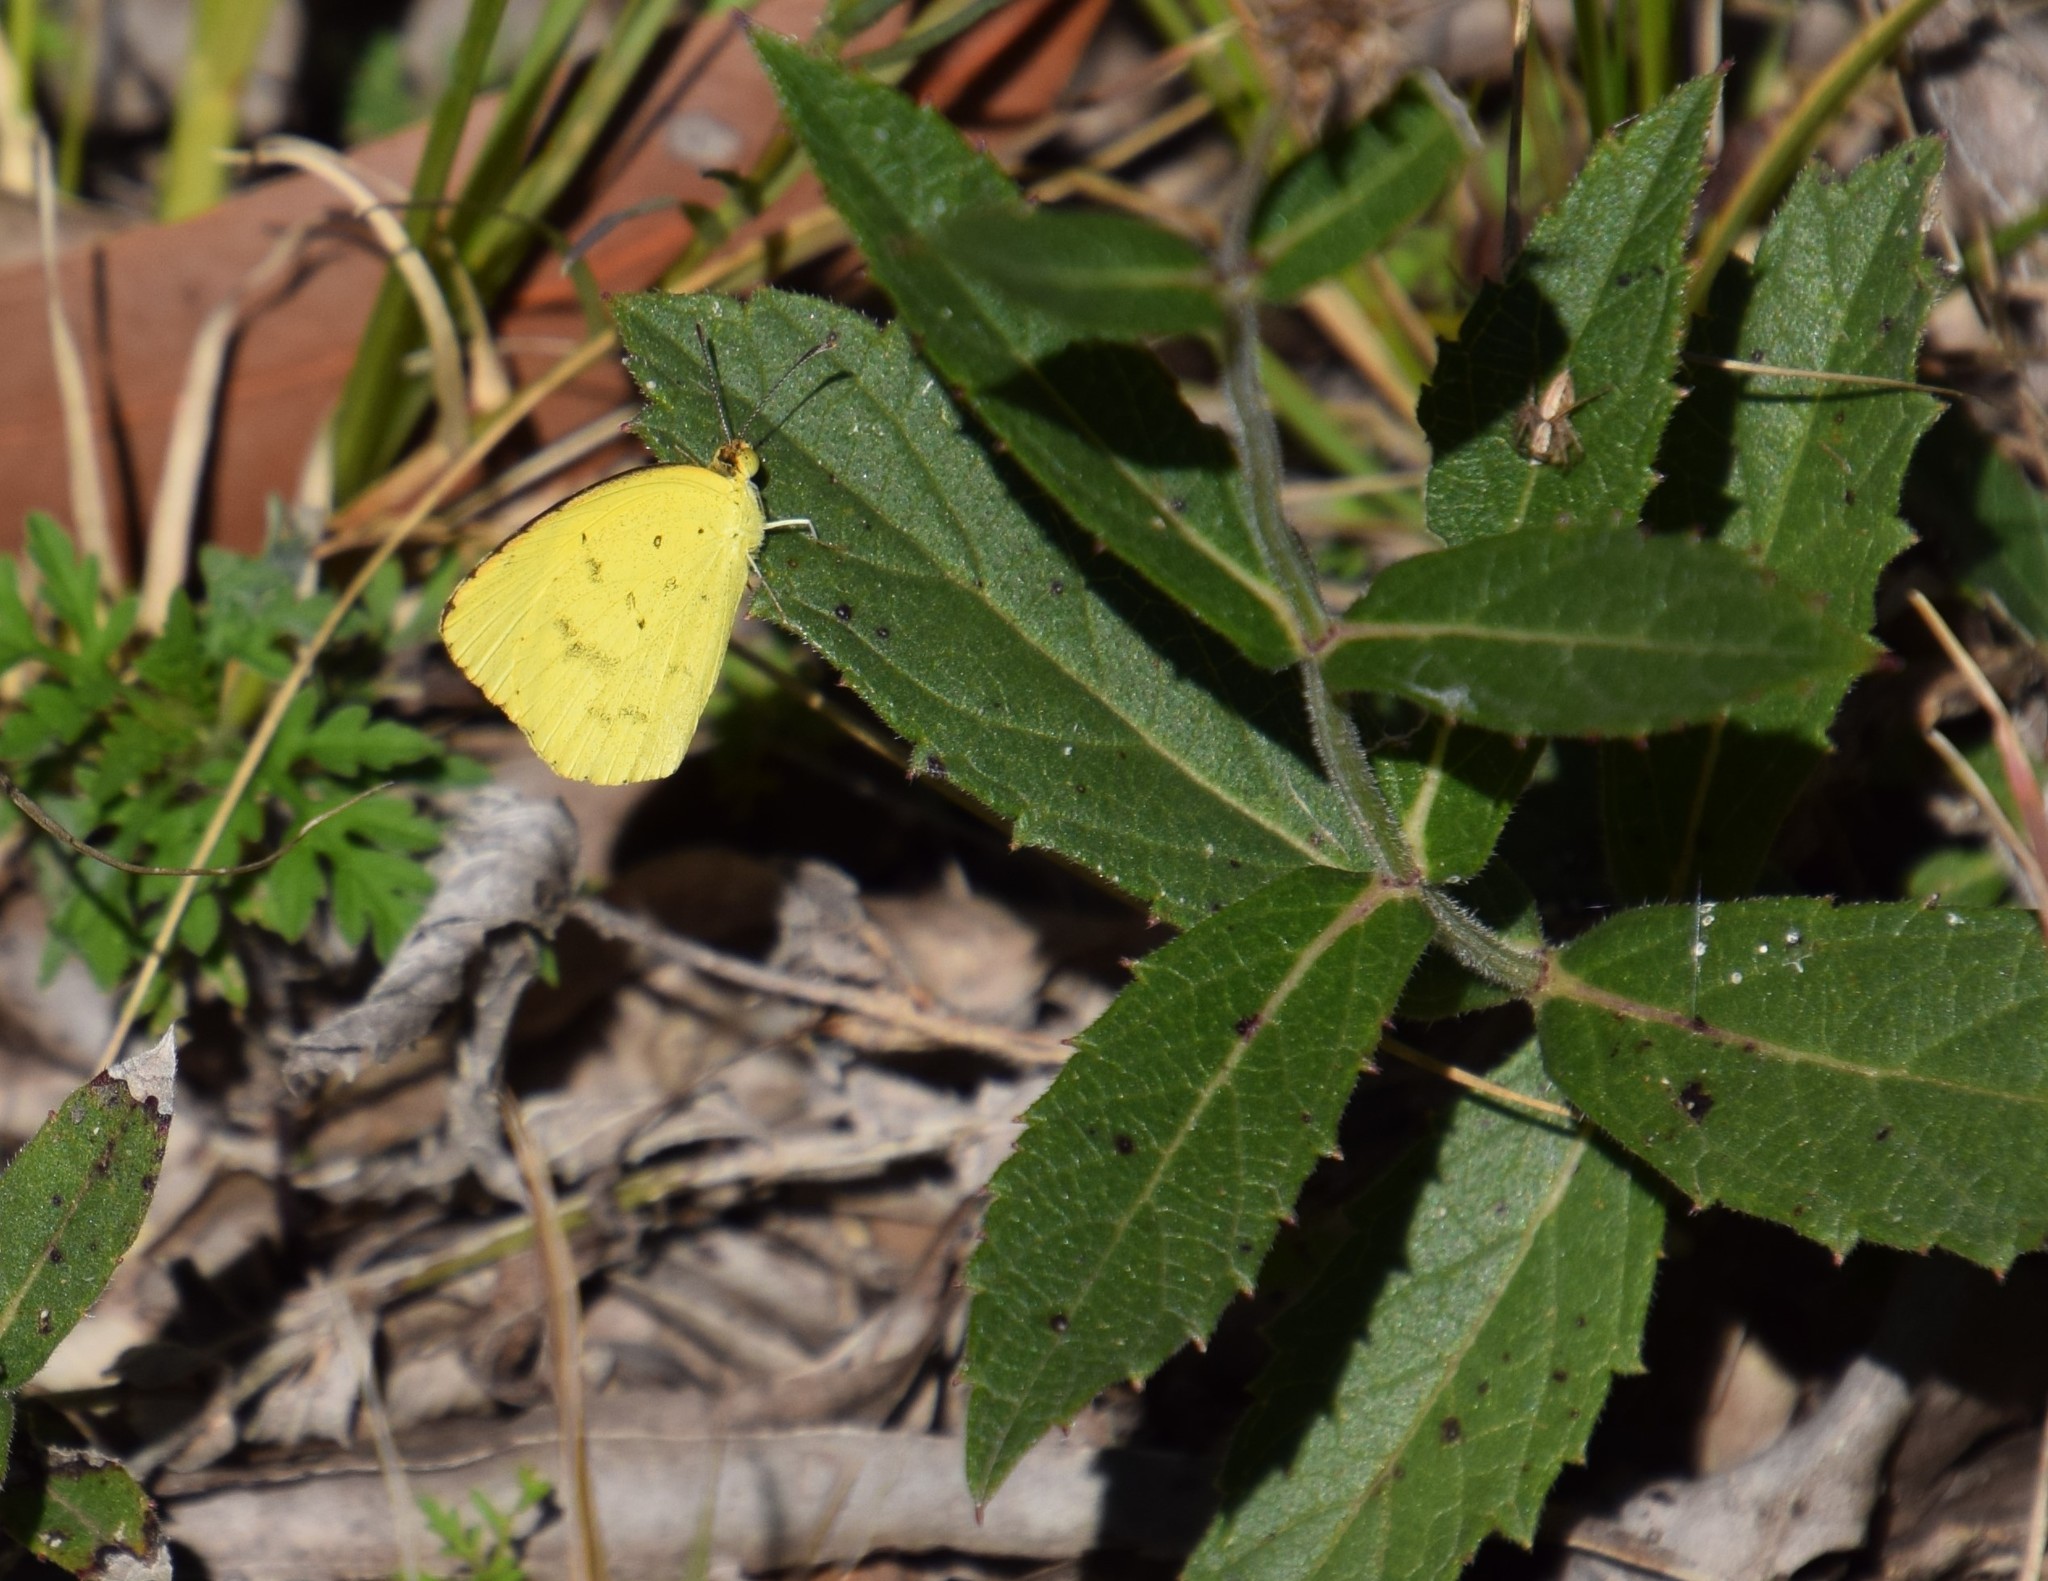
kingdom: Animalia
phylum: Arthropoda
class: Insecta
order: Lepidoptera
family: Pieridae
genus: Eurema
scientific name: Eurema hecabe
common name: Pale grass yellow
